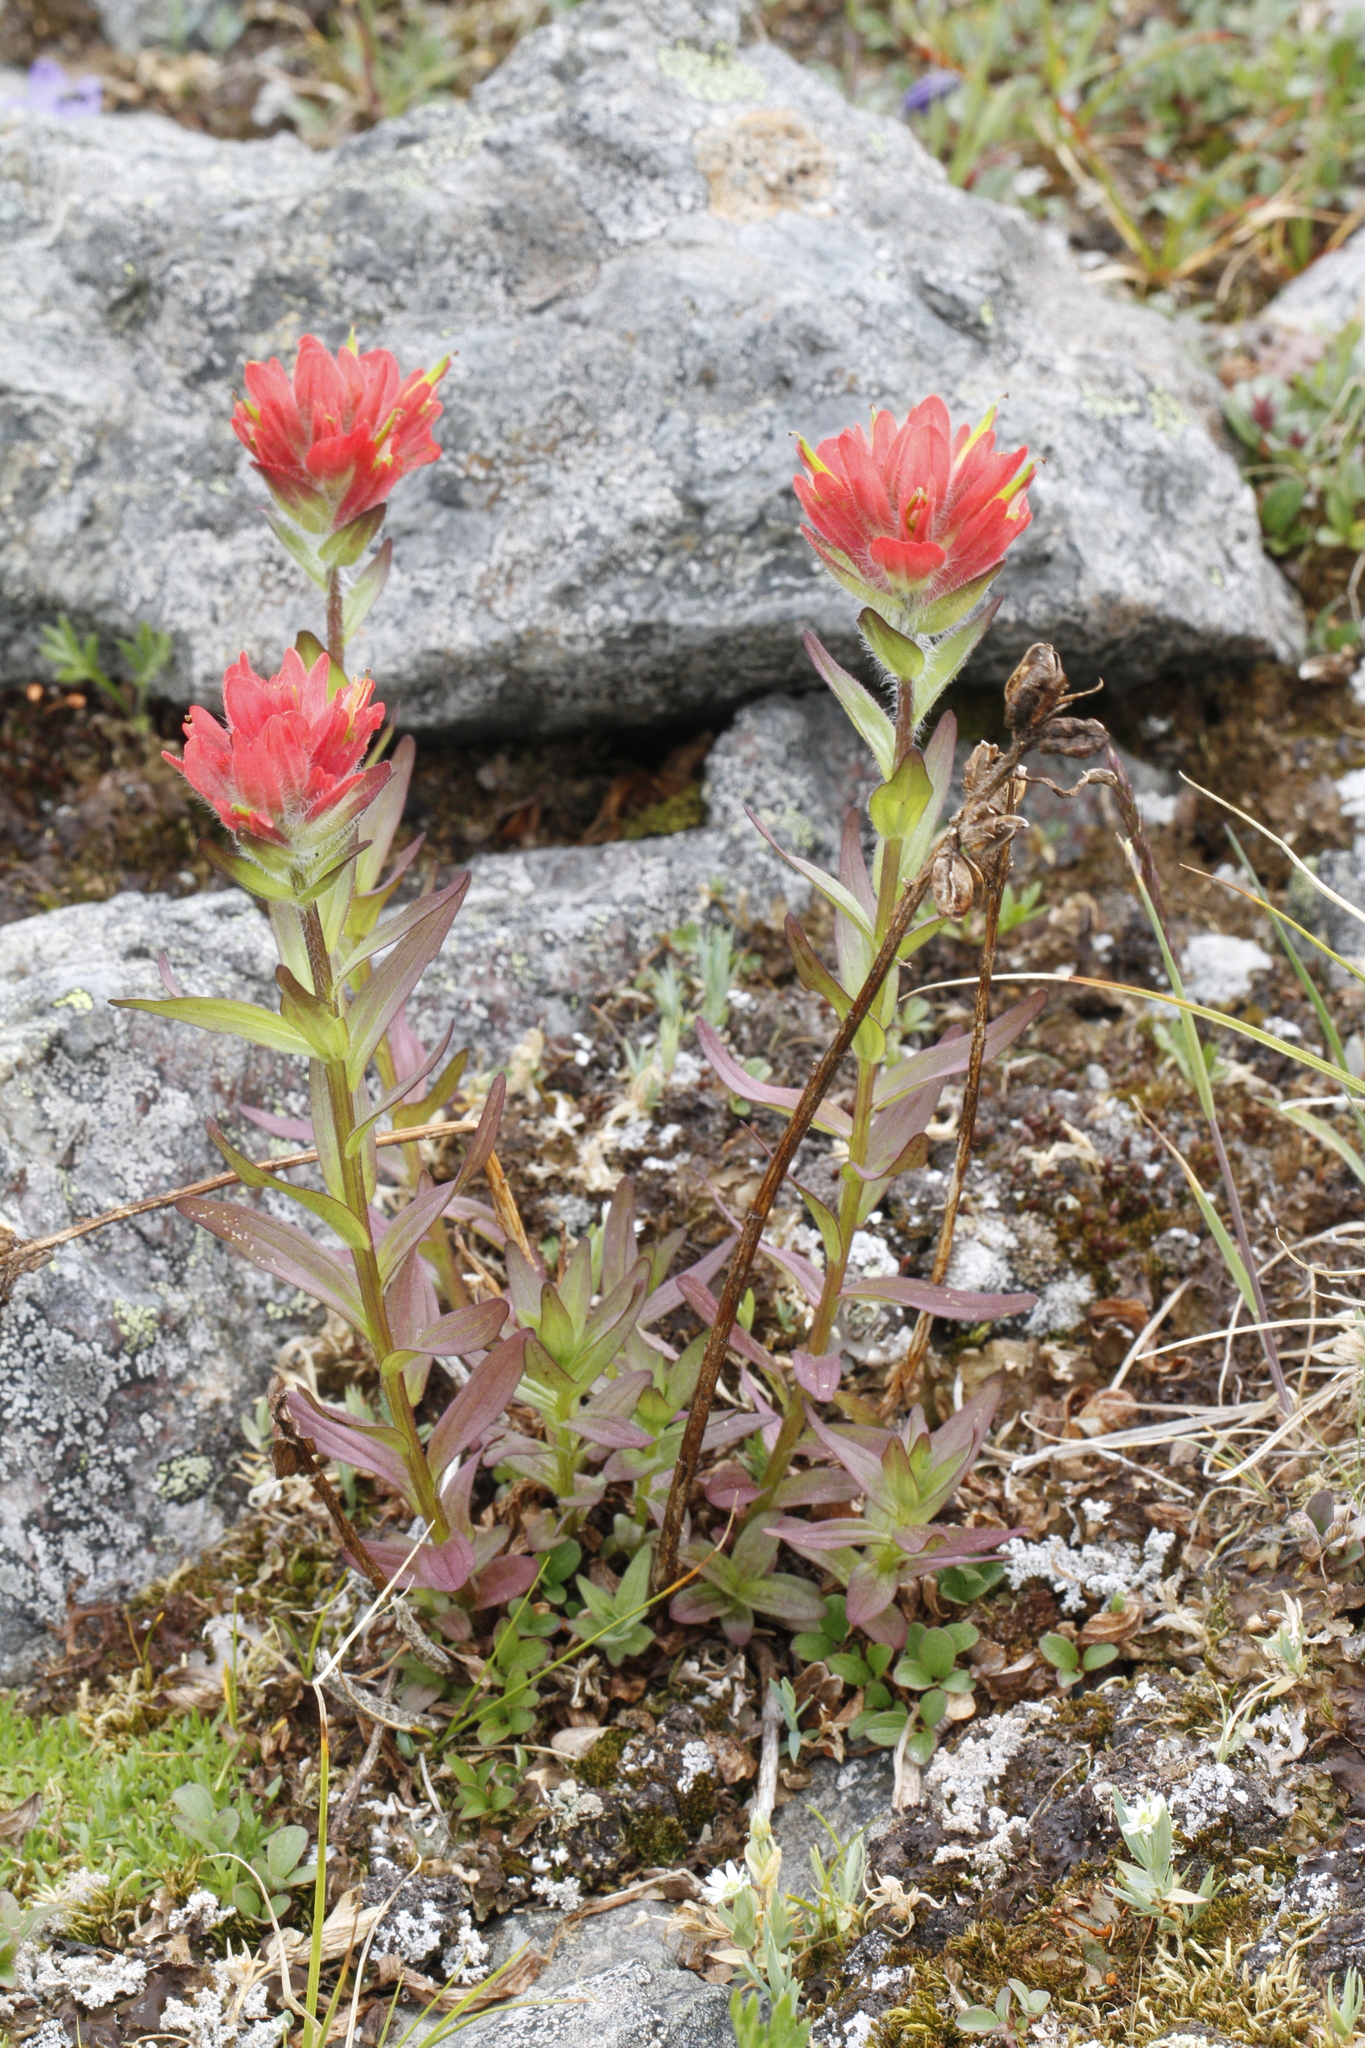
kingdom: Plantae
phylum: Tracheophyta
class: Magnoliopsida
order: Lamiales
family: Orobanchaceae
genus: Castilleja
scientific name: Castilleja miniata
